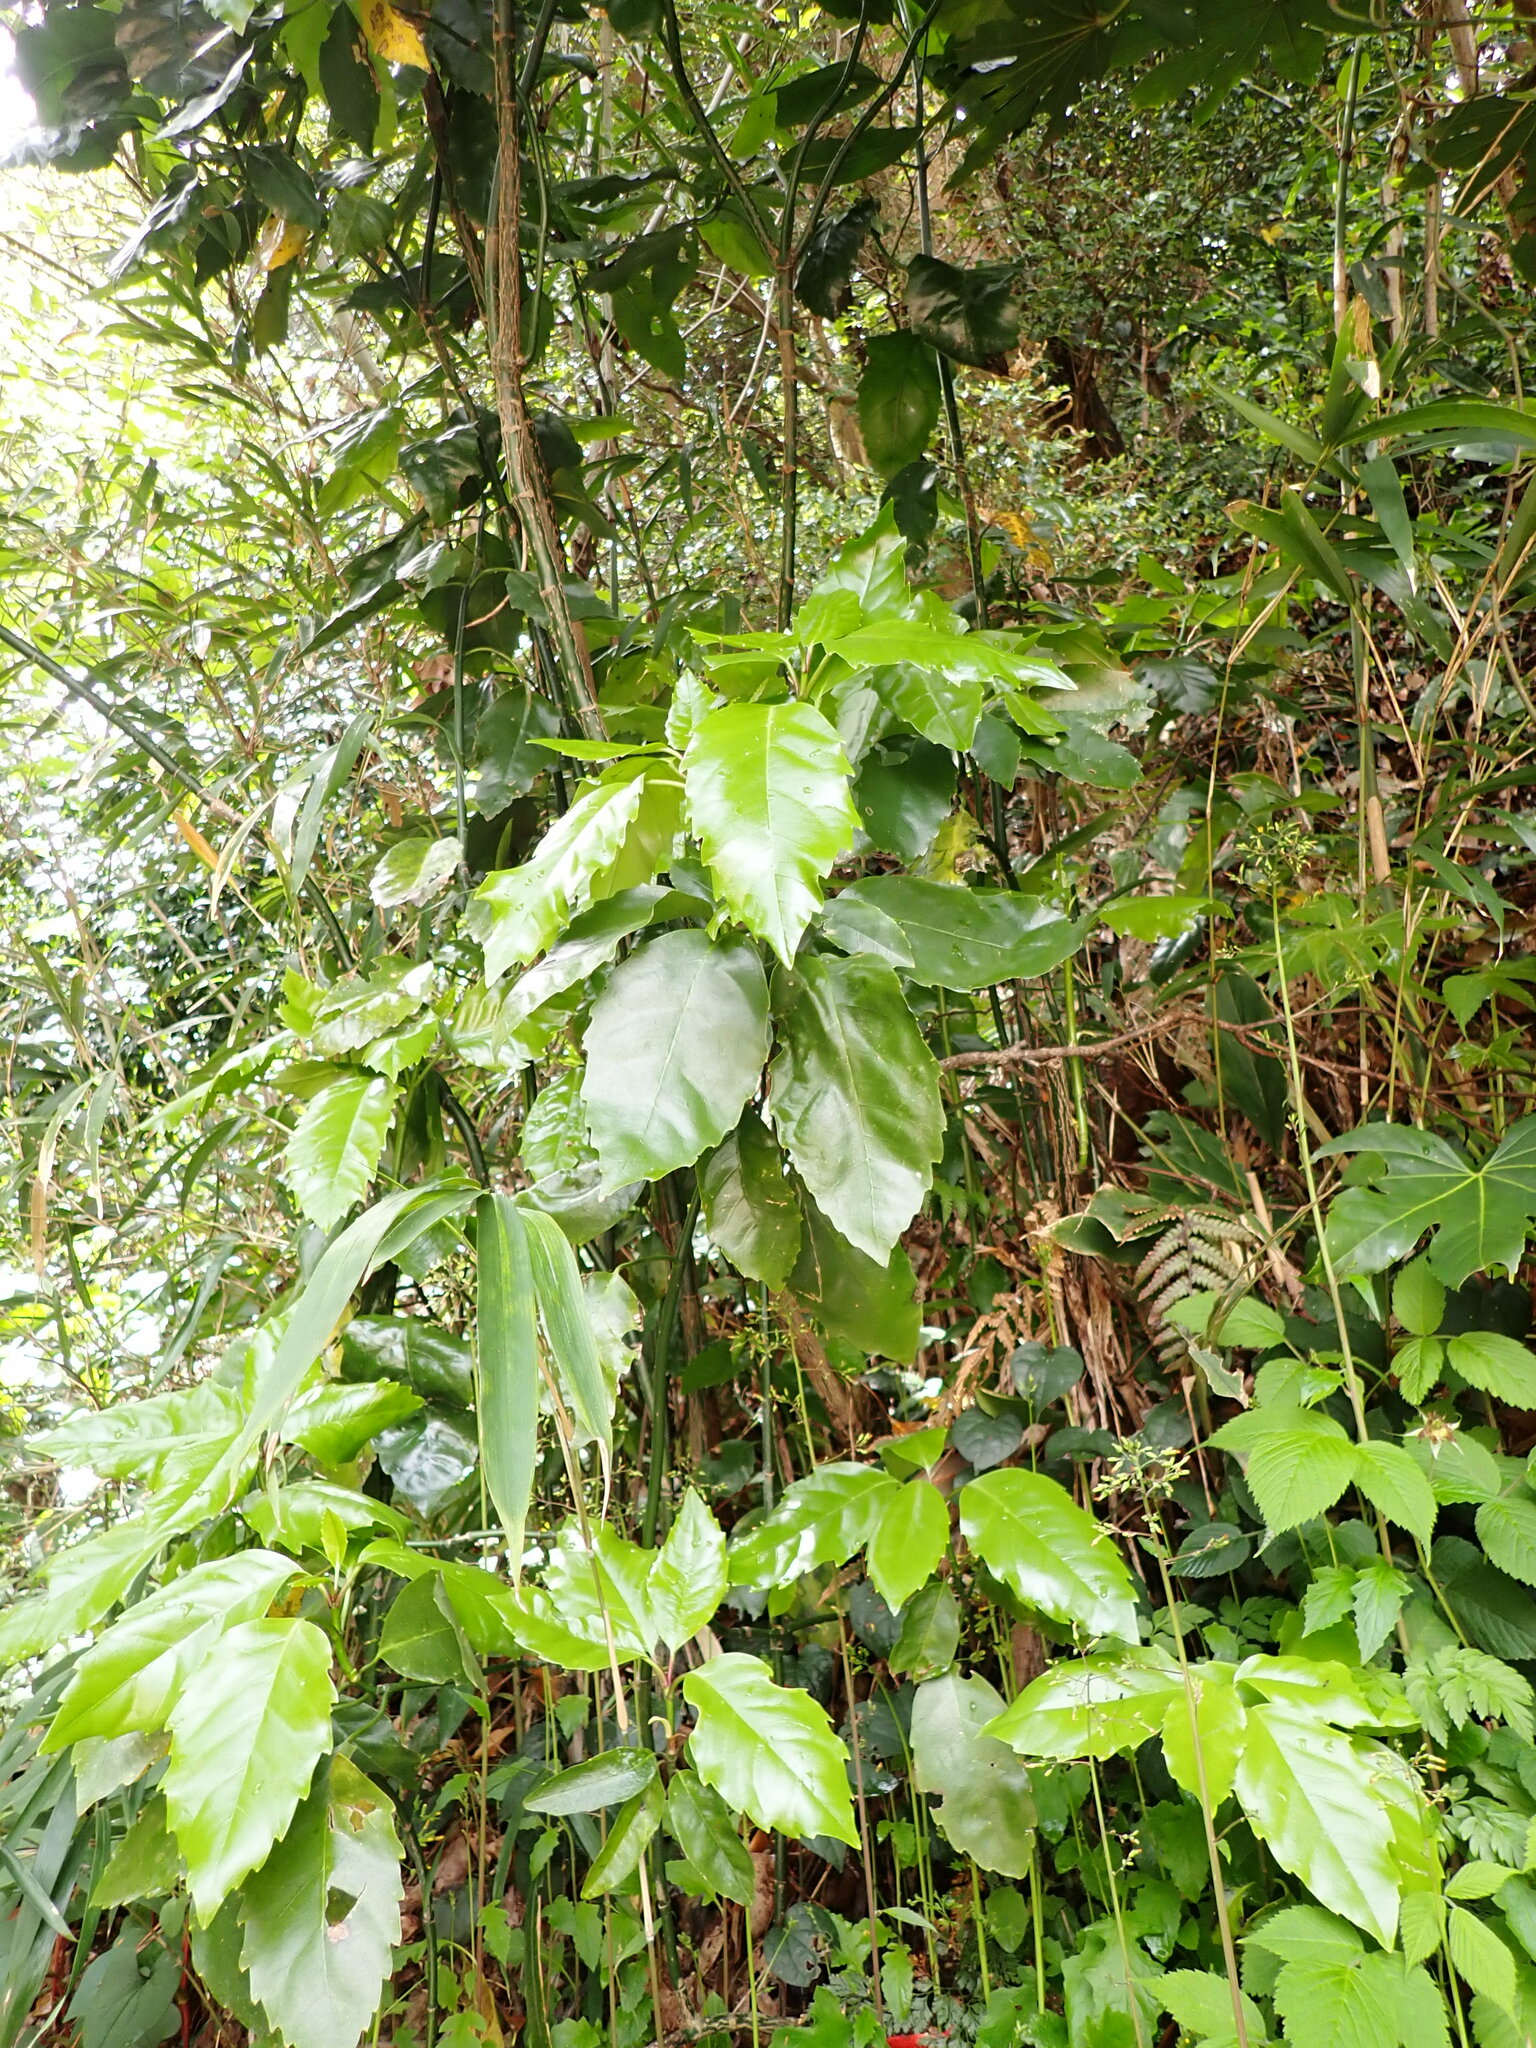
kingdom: Plantae
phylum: Tracheophyta
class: Magnoliopsida
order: Garryales
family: Garryaceae
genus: Aucuba
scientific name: Aucuba japonica
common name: Spotted-laurel
